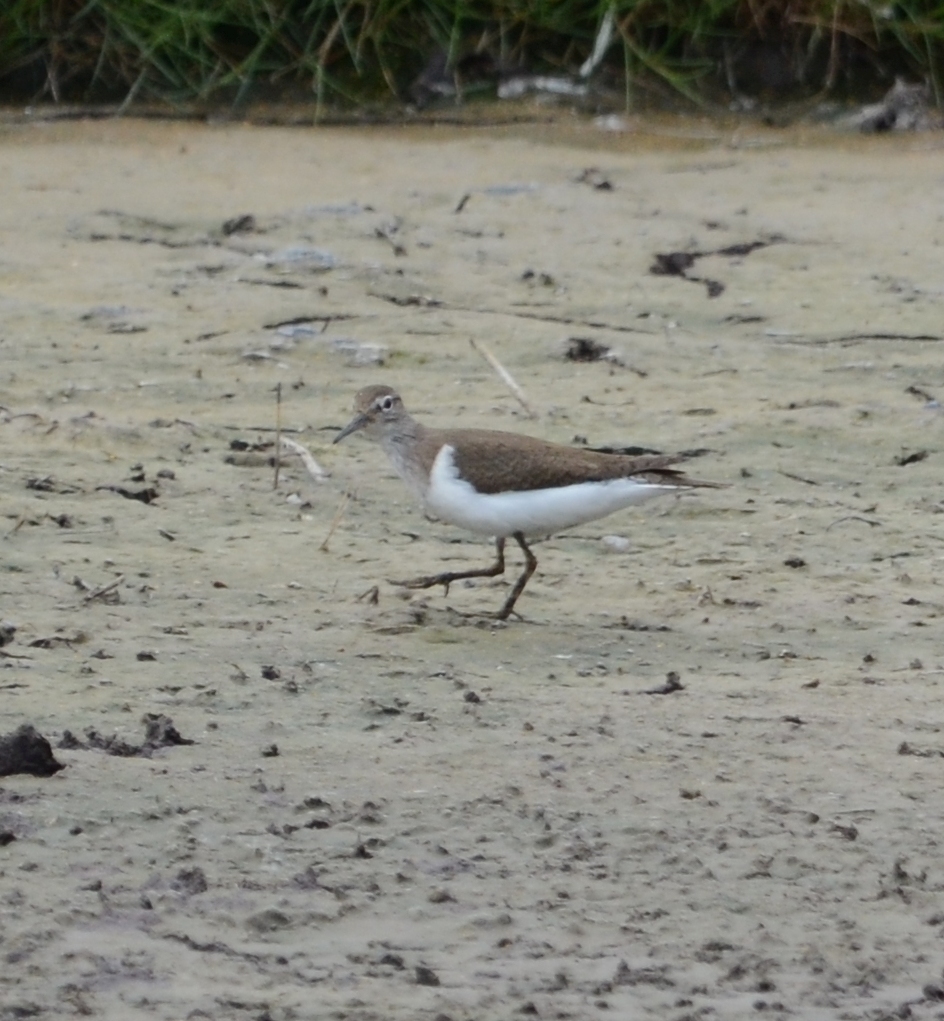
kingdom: Animalia
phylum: Chordata
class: Aves
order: Charadriiformes
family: Scolopacidae
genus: Actitis
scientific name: Actitis hypoleucos
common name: Common sandpiper
